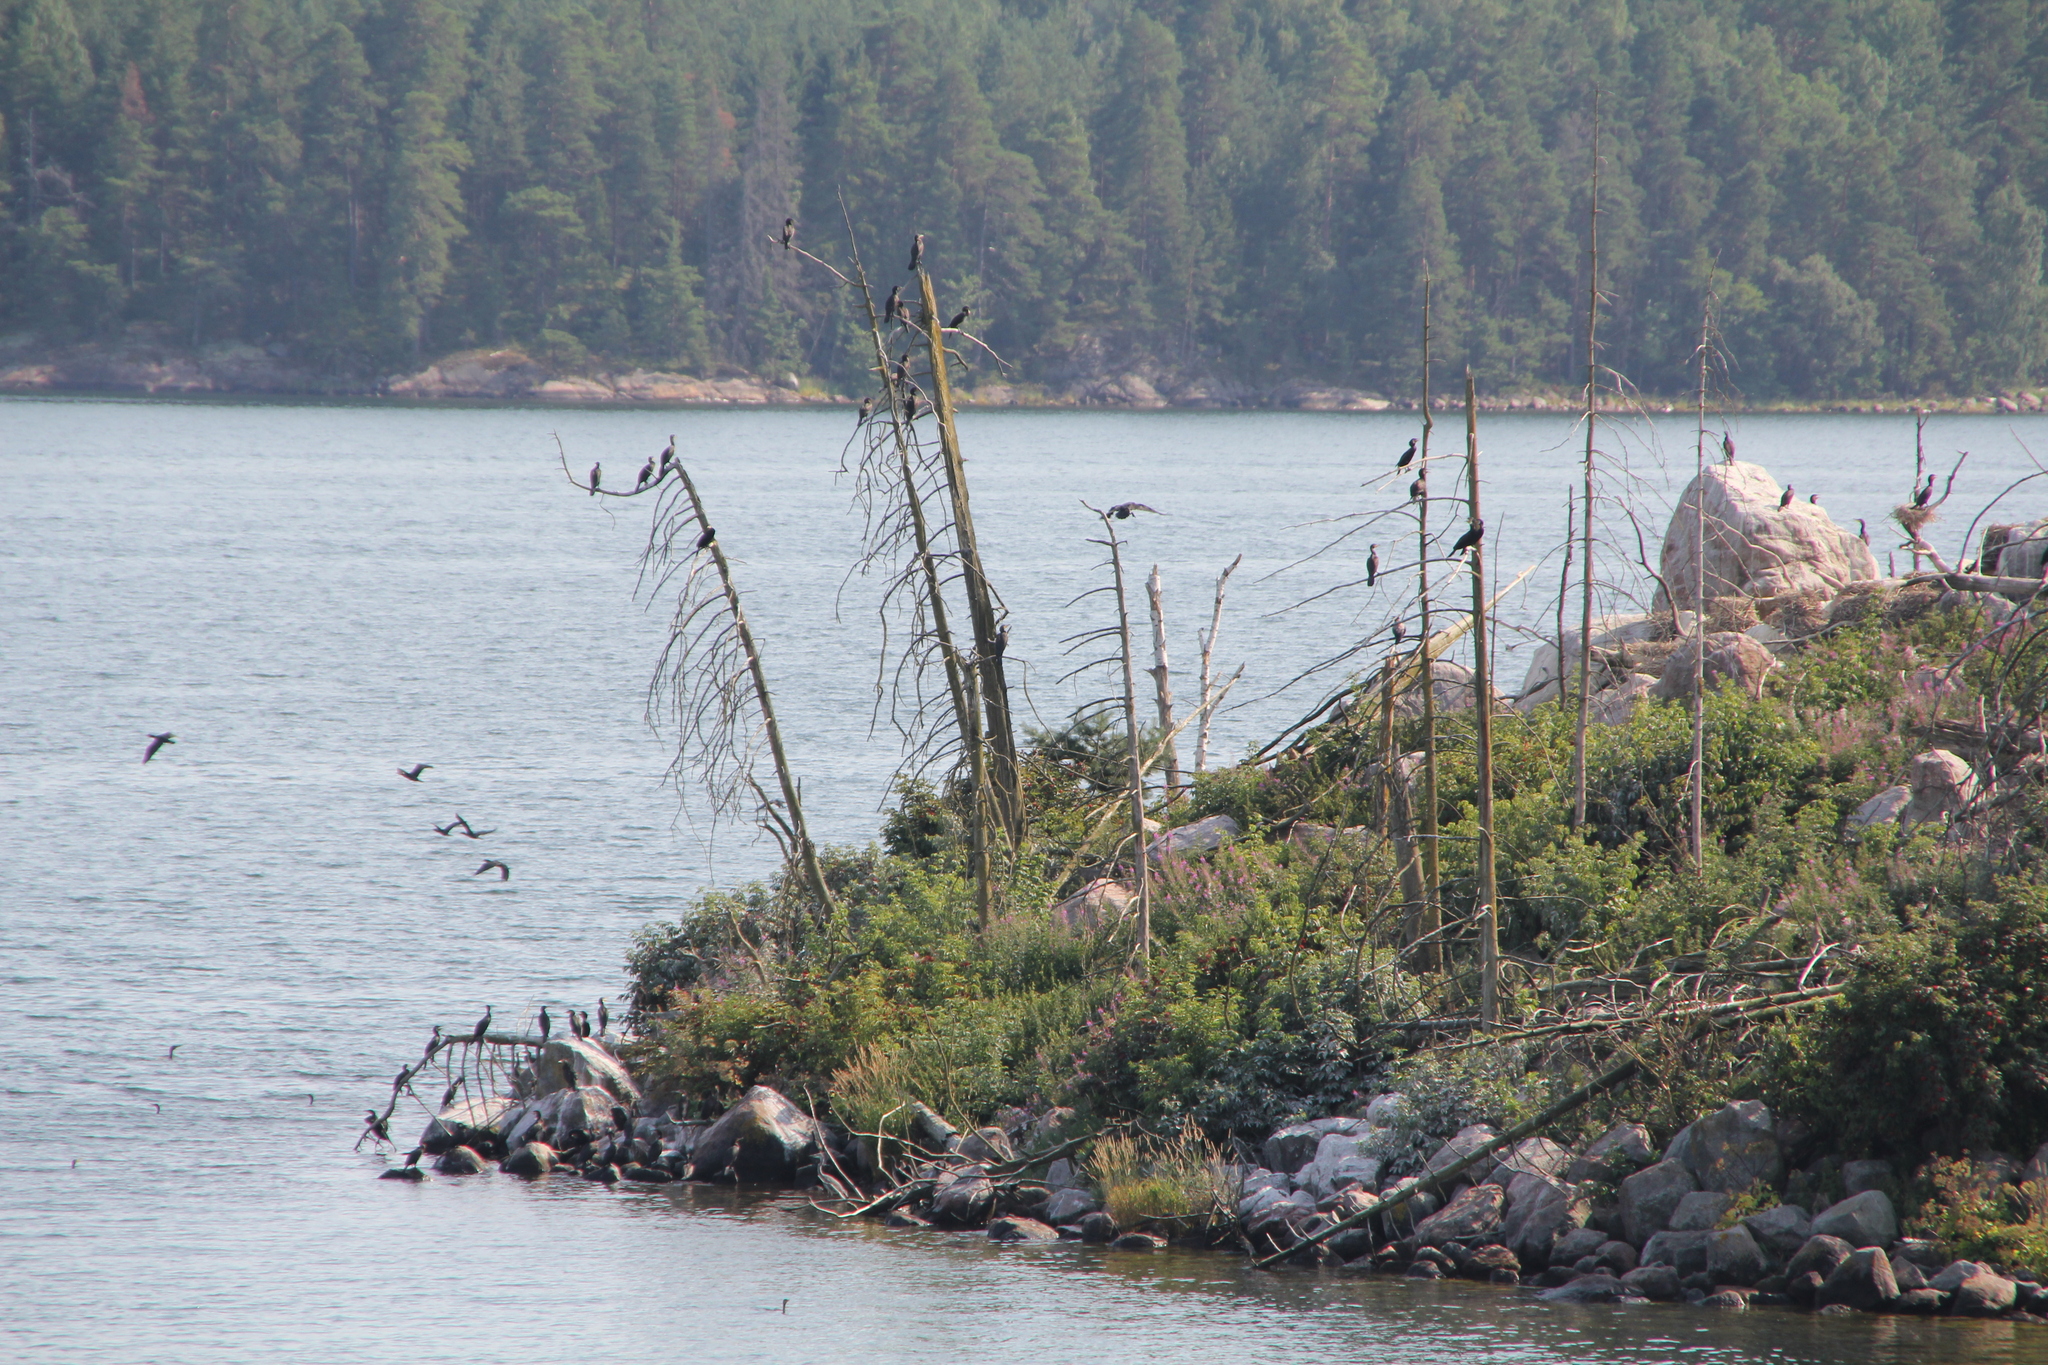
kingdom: Animalia
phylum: Chordata
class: Aves
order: Suliformes
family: Phalacrocoracidae
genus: Phalacrocorax
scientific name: Phalacrocorax carbo
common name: Great cormorant
